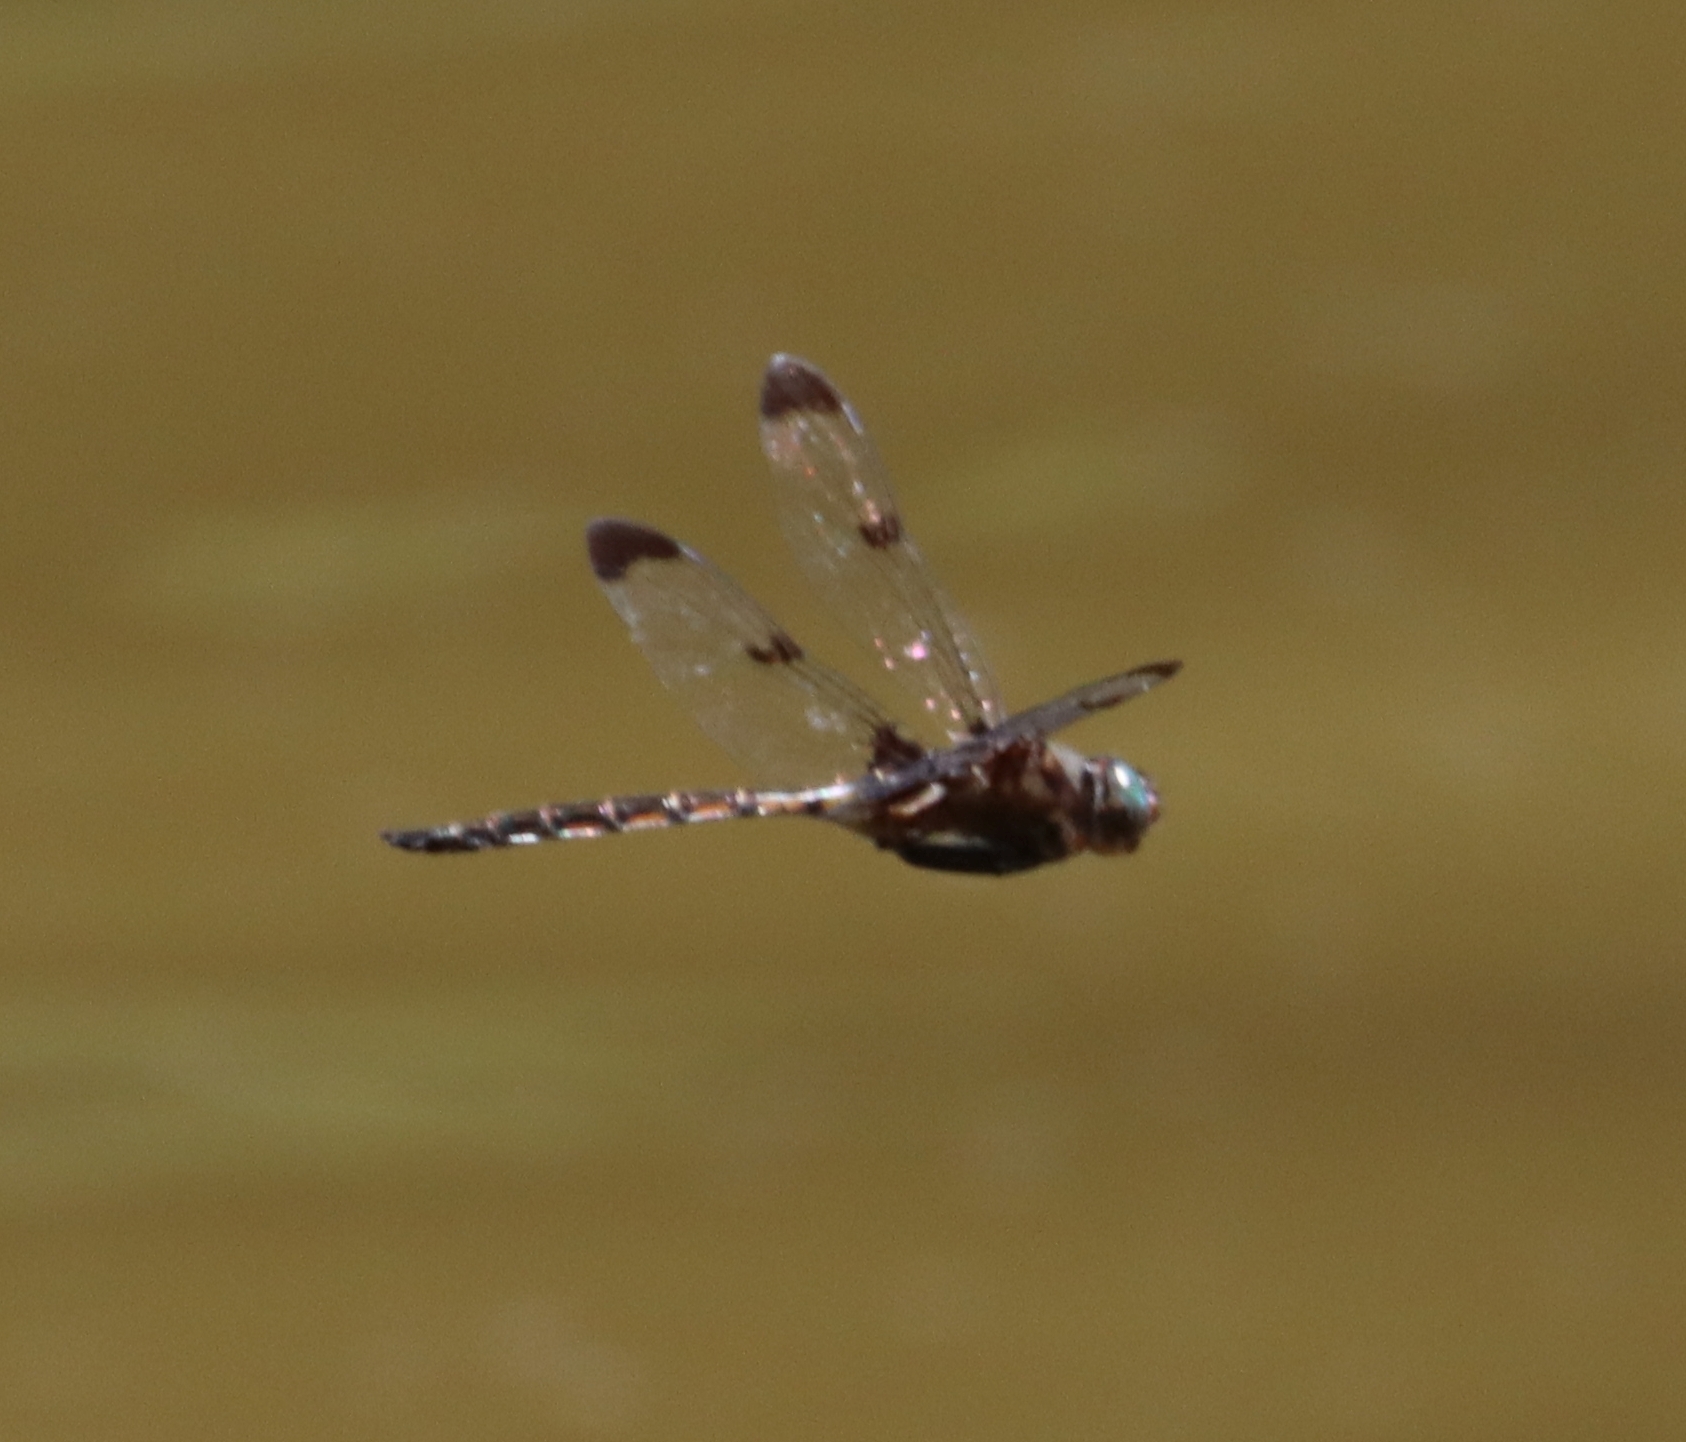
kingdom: Animalia
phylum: Arthropoda
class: Insecta
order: Odonata
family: Corduliidae
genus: Epitheca
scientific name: Epitheca princeps
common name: Prince baskettail
